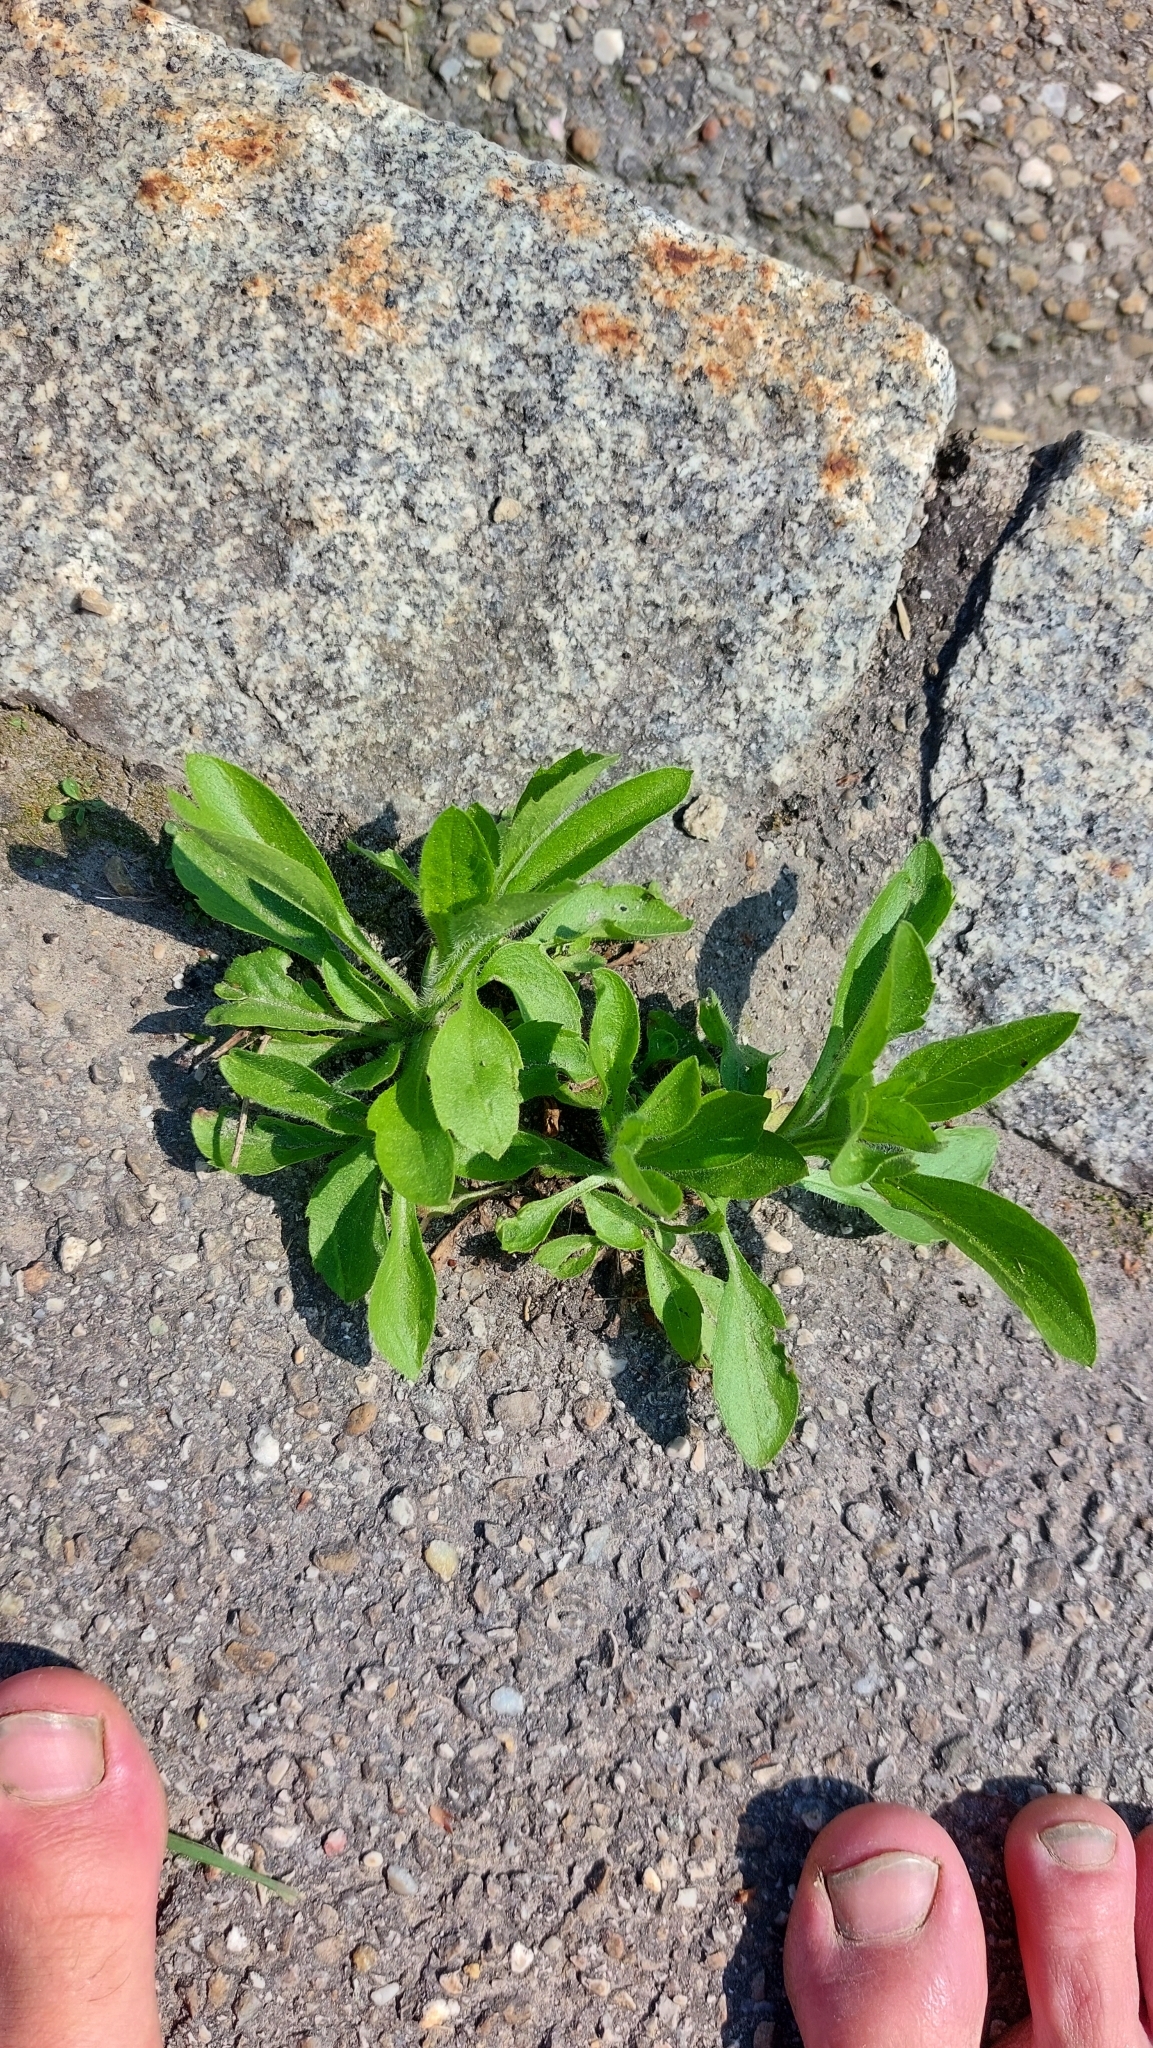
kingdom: Plantae
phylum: Tracheophyta
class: Magnoliopsida
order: Asterales
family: Asteraceae
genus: Erigeron
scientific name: Erigeron annuus
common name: Tall fleabane
